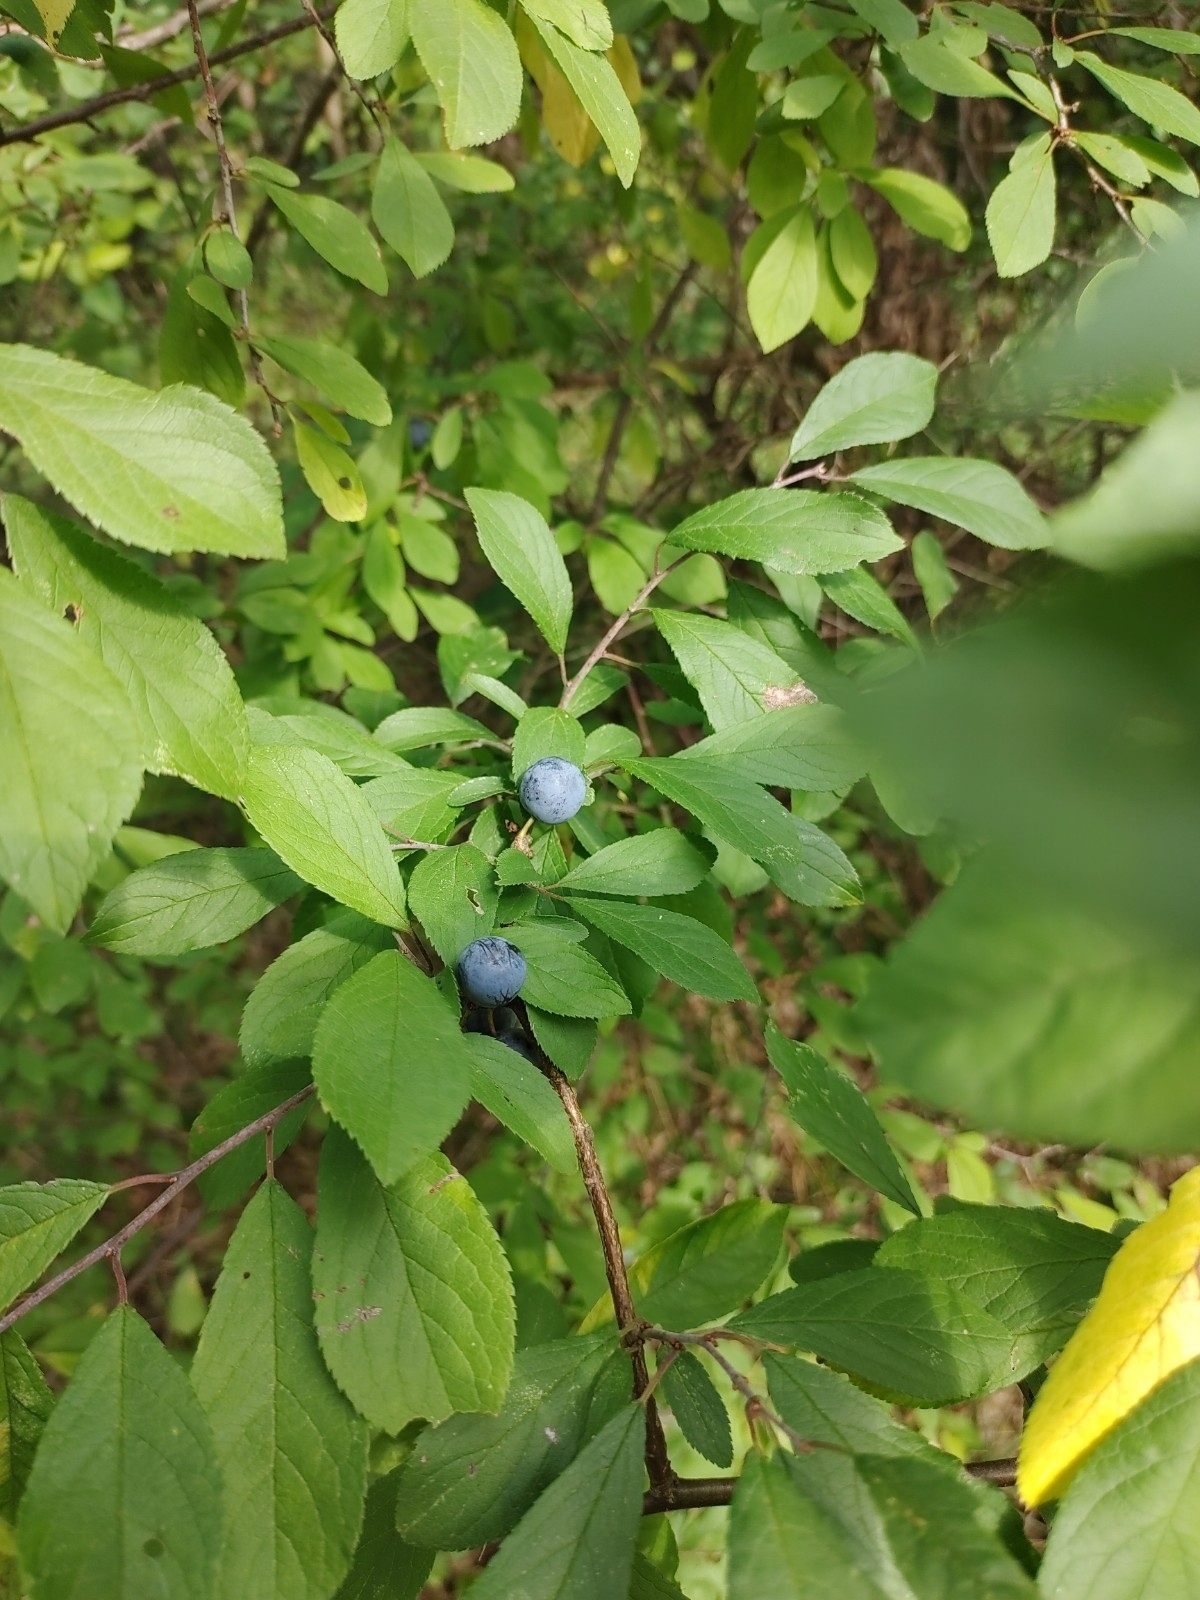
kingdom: Plantae
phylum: Tracheophyta
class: Magnoliopsida
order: Rosales
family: Rosaceae
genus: Prunus
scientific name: Prunus spinosa
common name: Blackthorn
